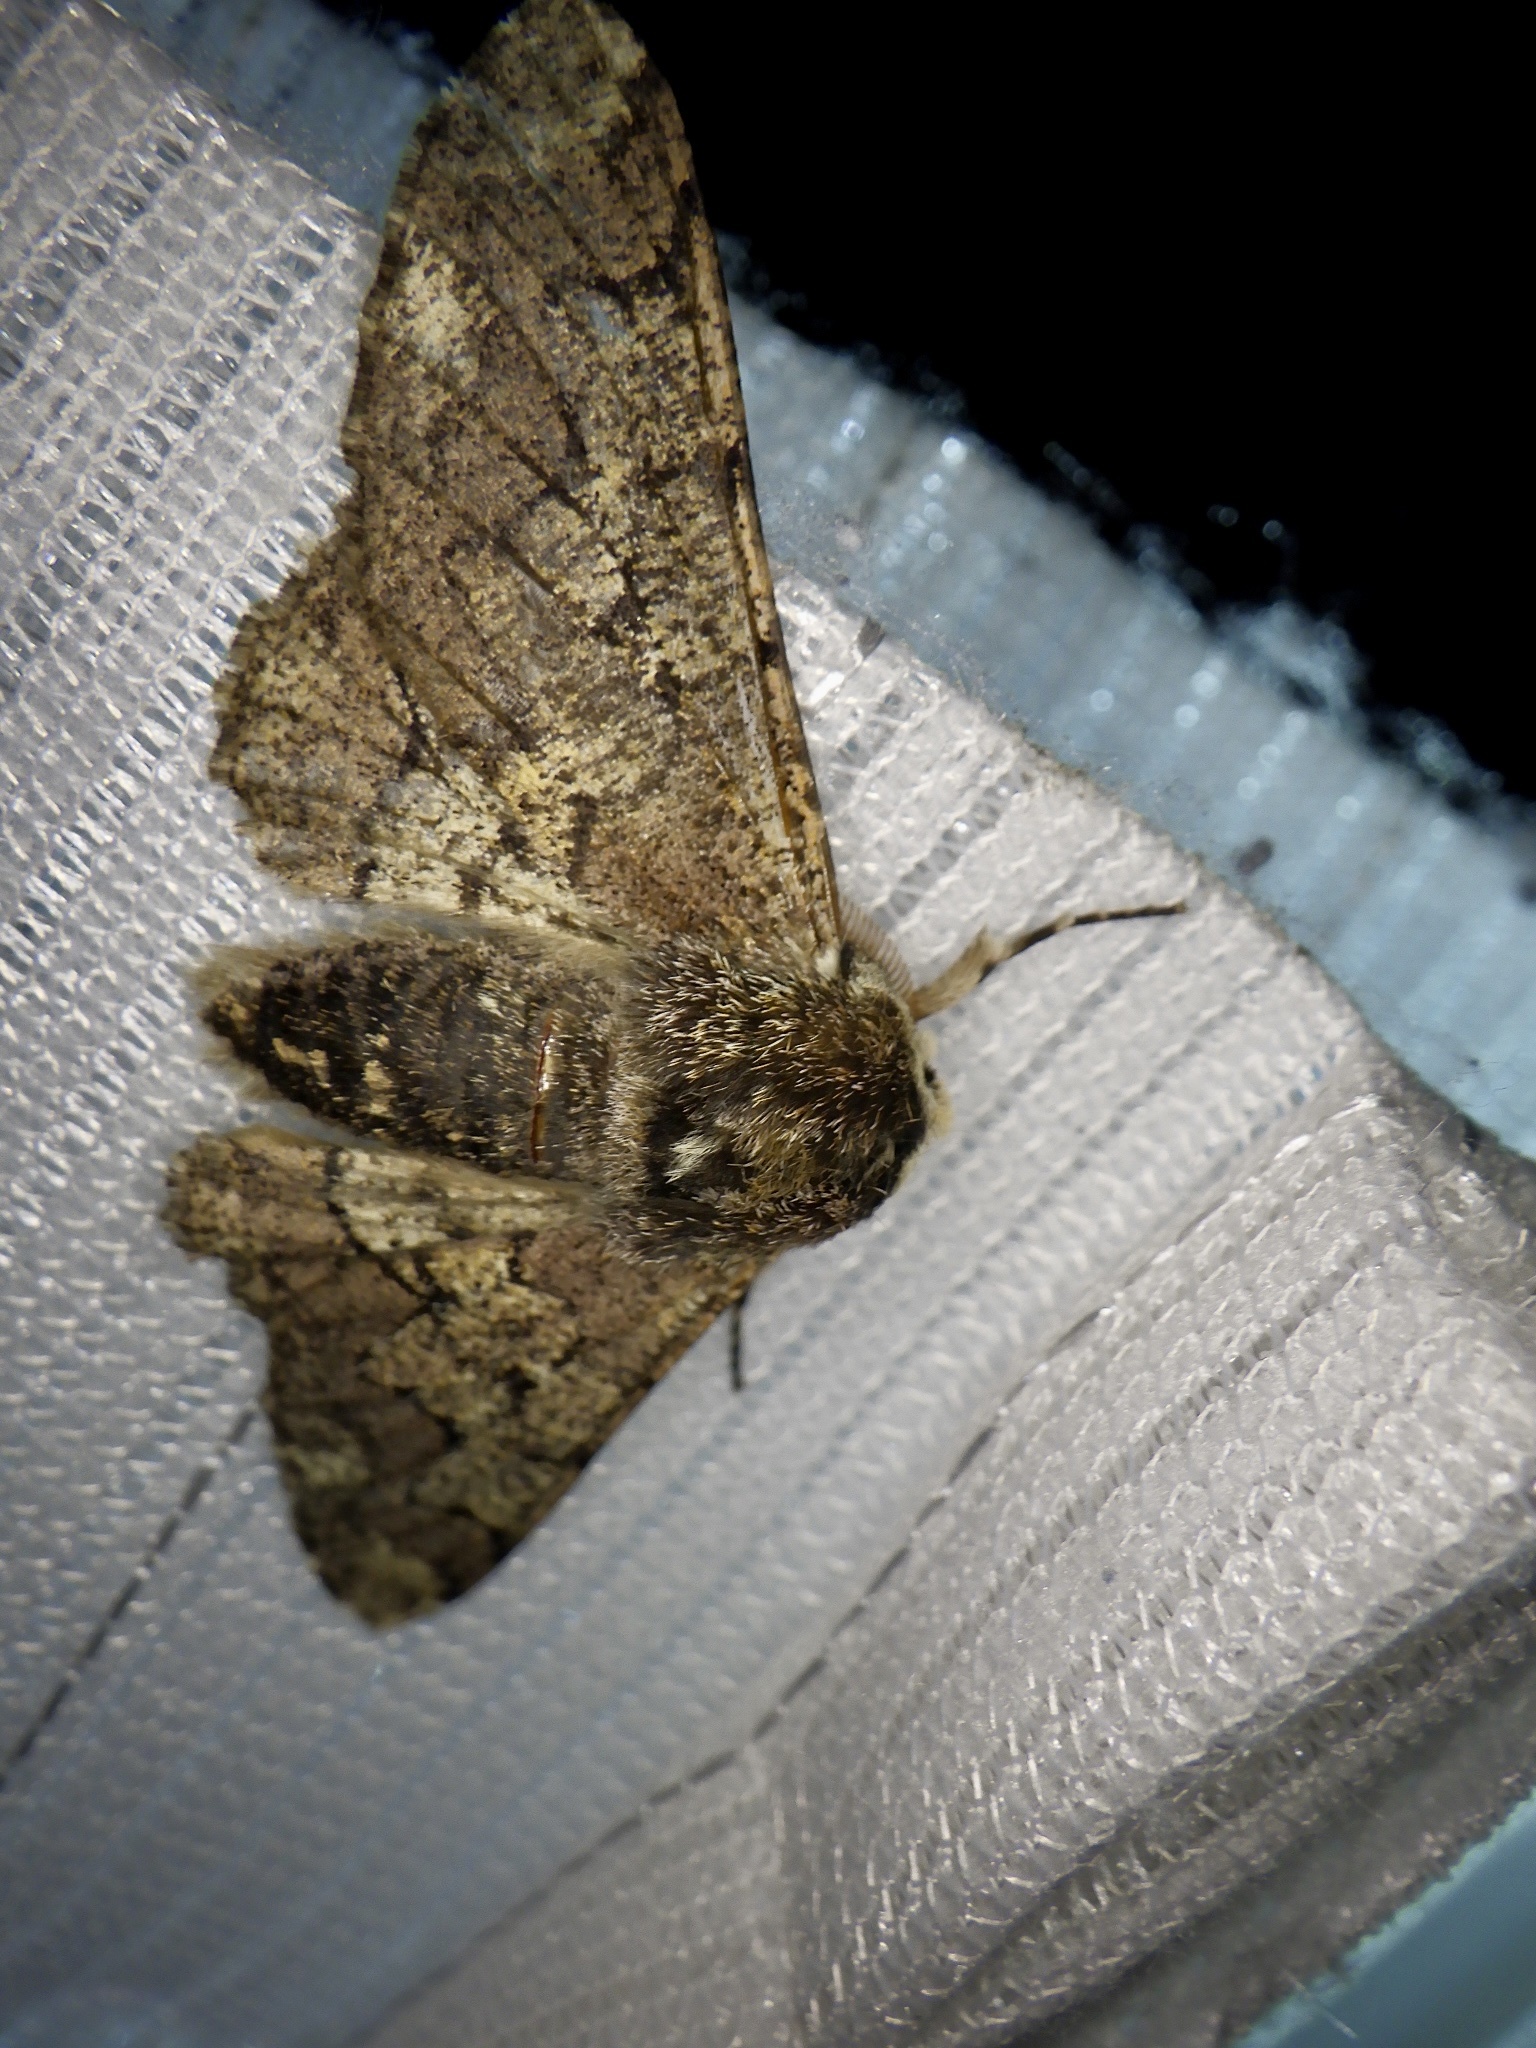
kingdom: Animalia
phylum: Arthropoda
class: Insecta
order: Lepidoptera
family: Geometridae
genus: Biston
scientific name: Biston robustum
